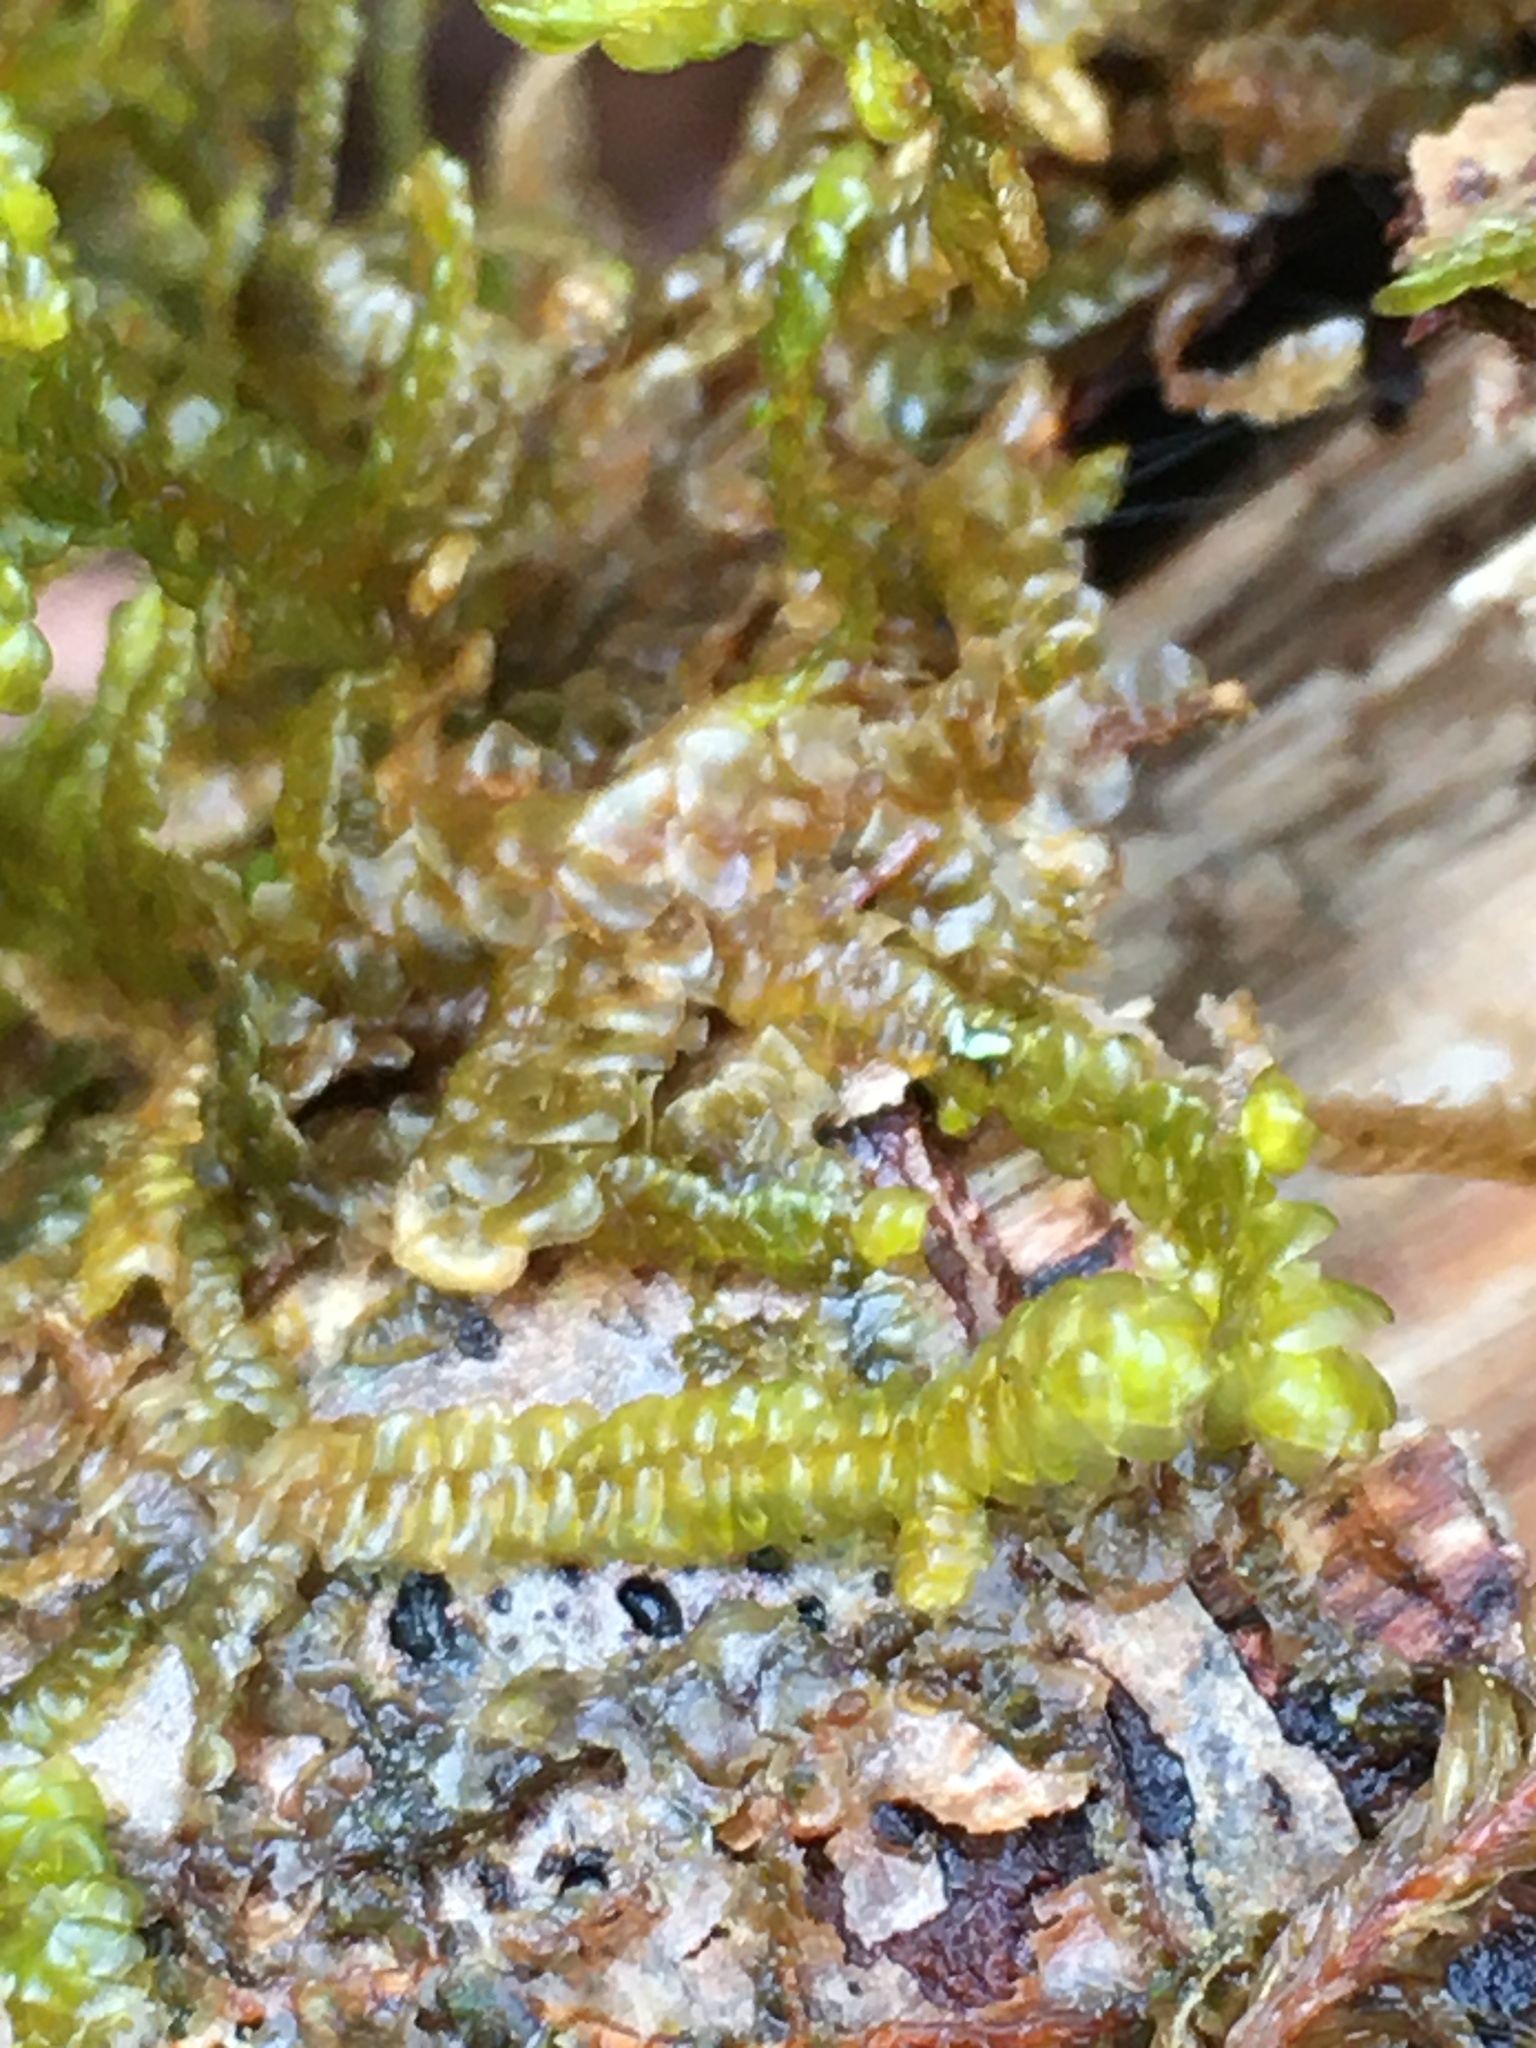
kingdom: Plantae
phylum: Marchantiophyta
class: Jungermanniopsida
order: Porellales
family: Porellaceae
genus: Porella
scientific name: Porella navicularis
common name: Tree ruffle liverwort
